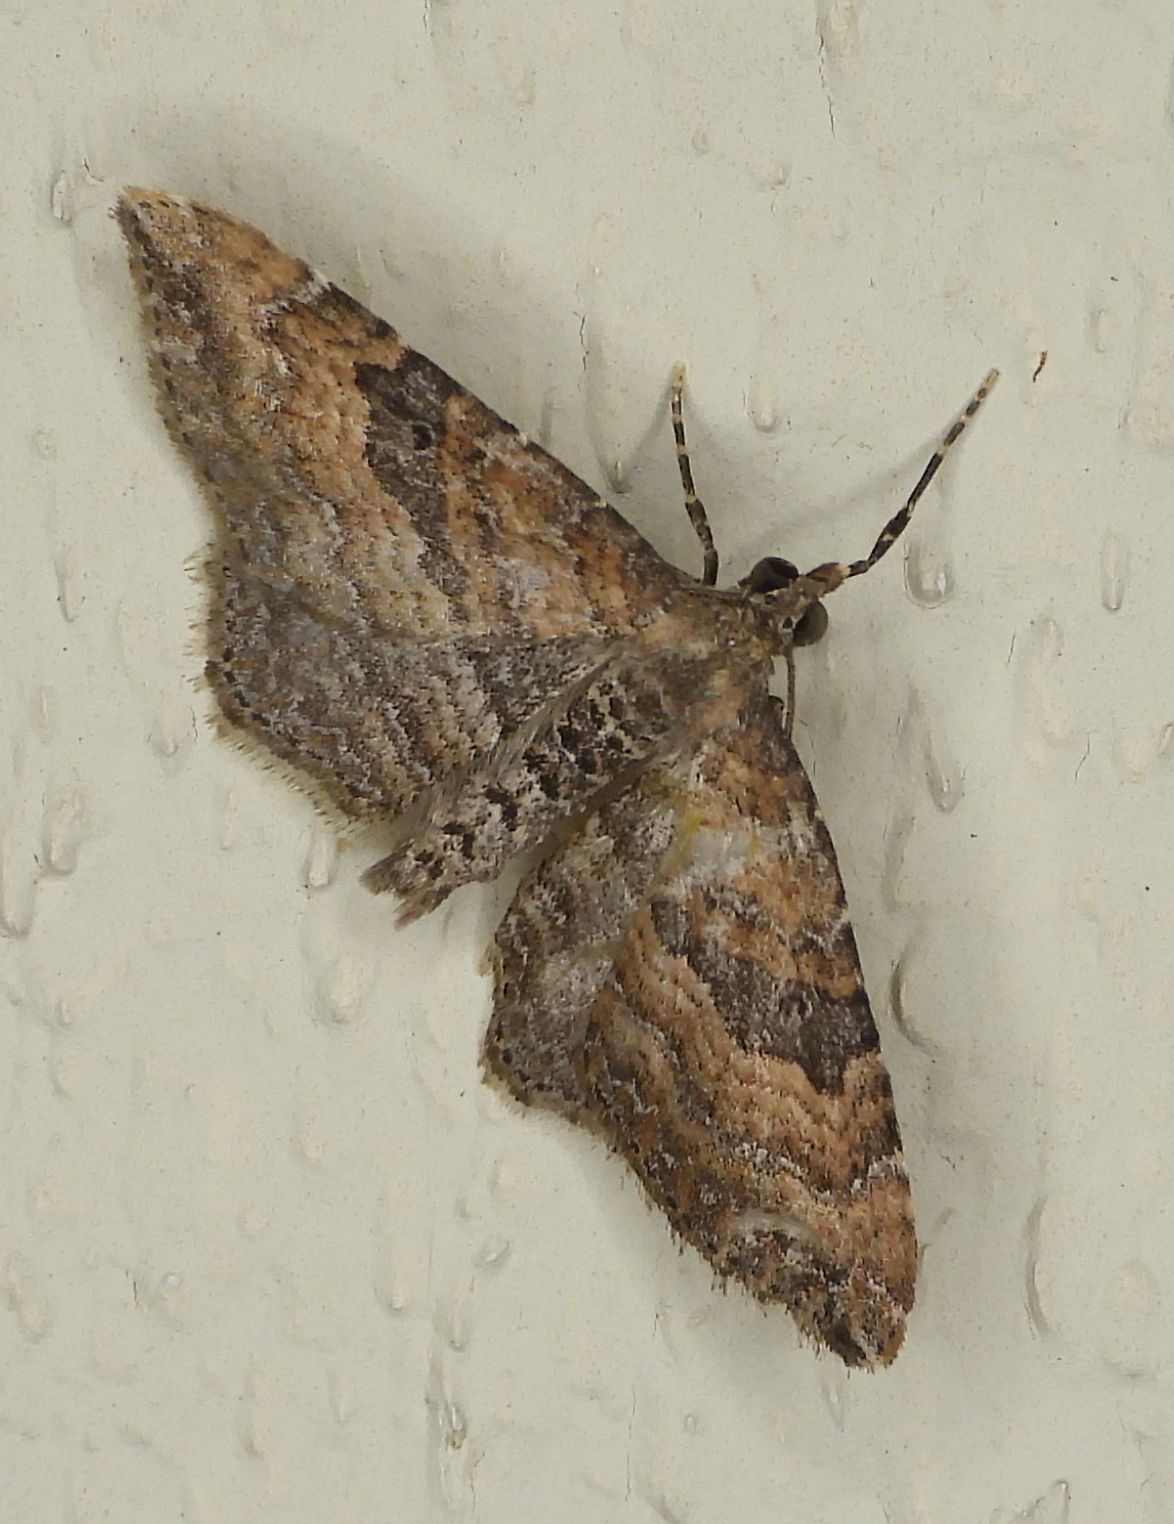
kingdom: Animalia
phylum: Arthropoda
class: Insecta
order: Lepidoptera
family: Geometridae
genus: Orthonama
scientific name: Orthonama obstipata
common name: The gem
